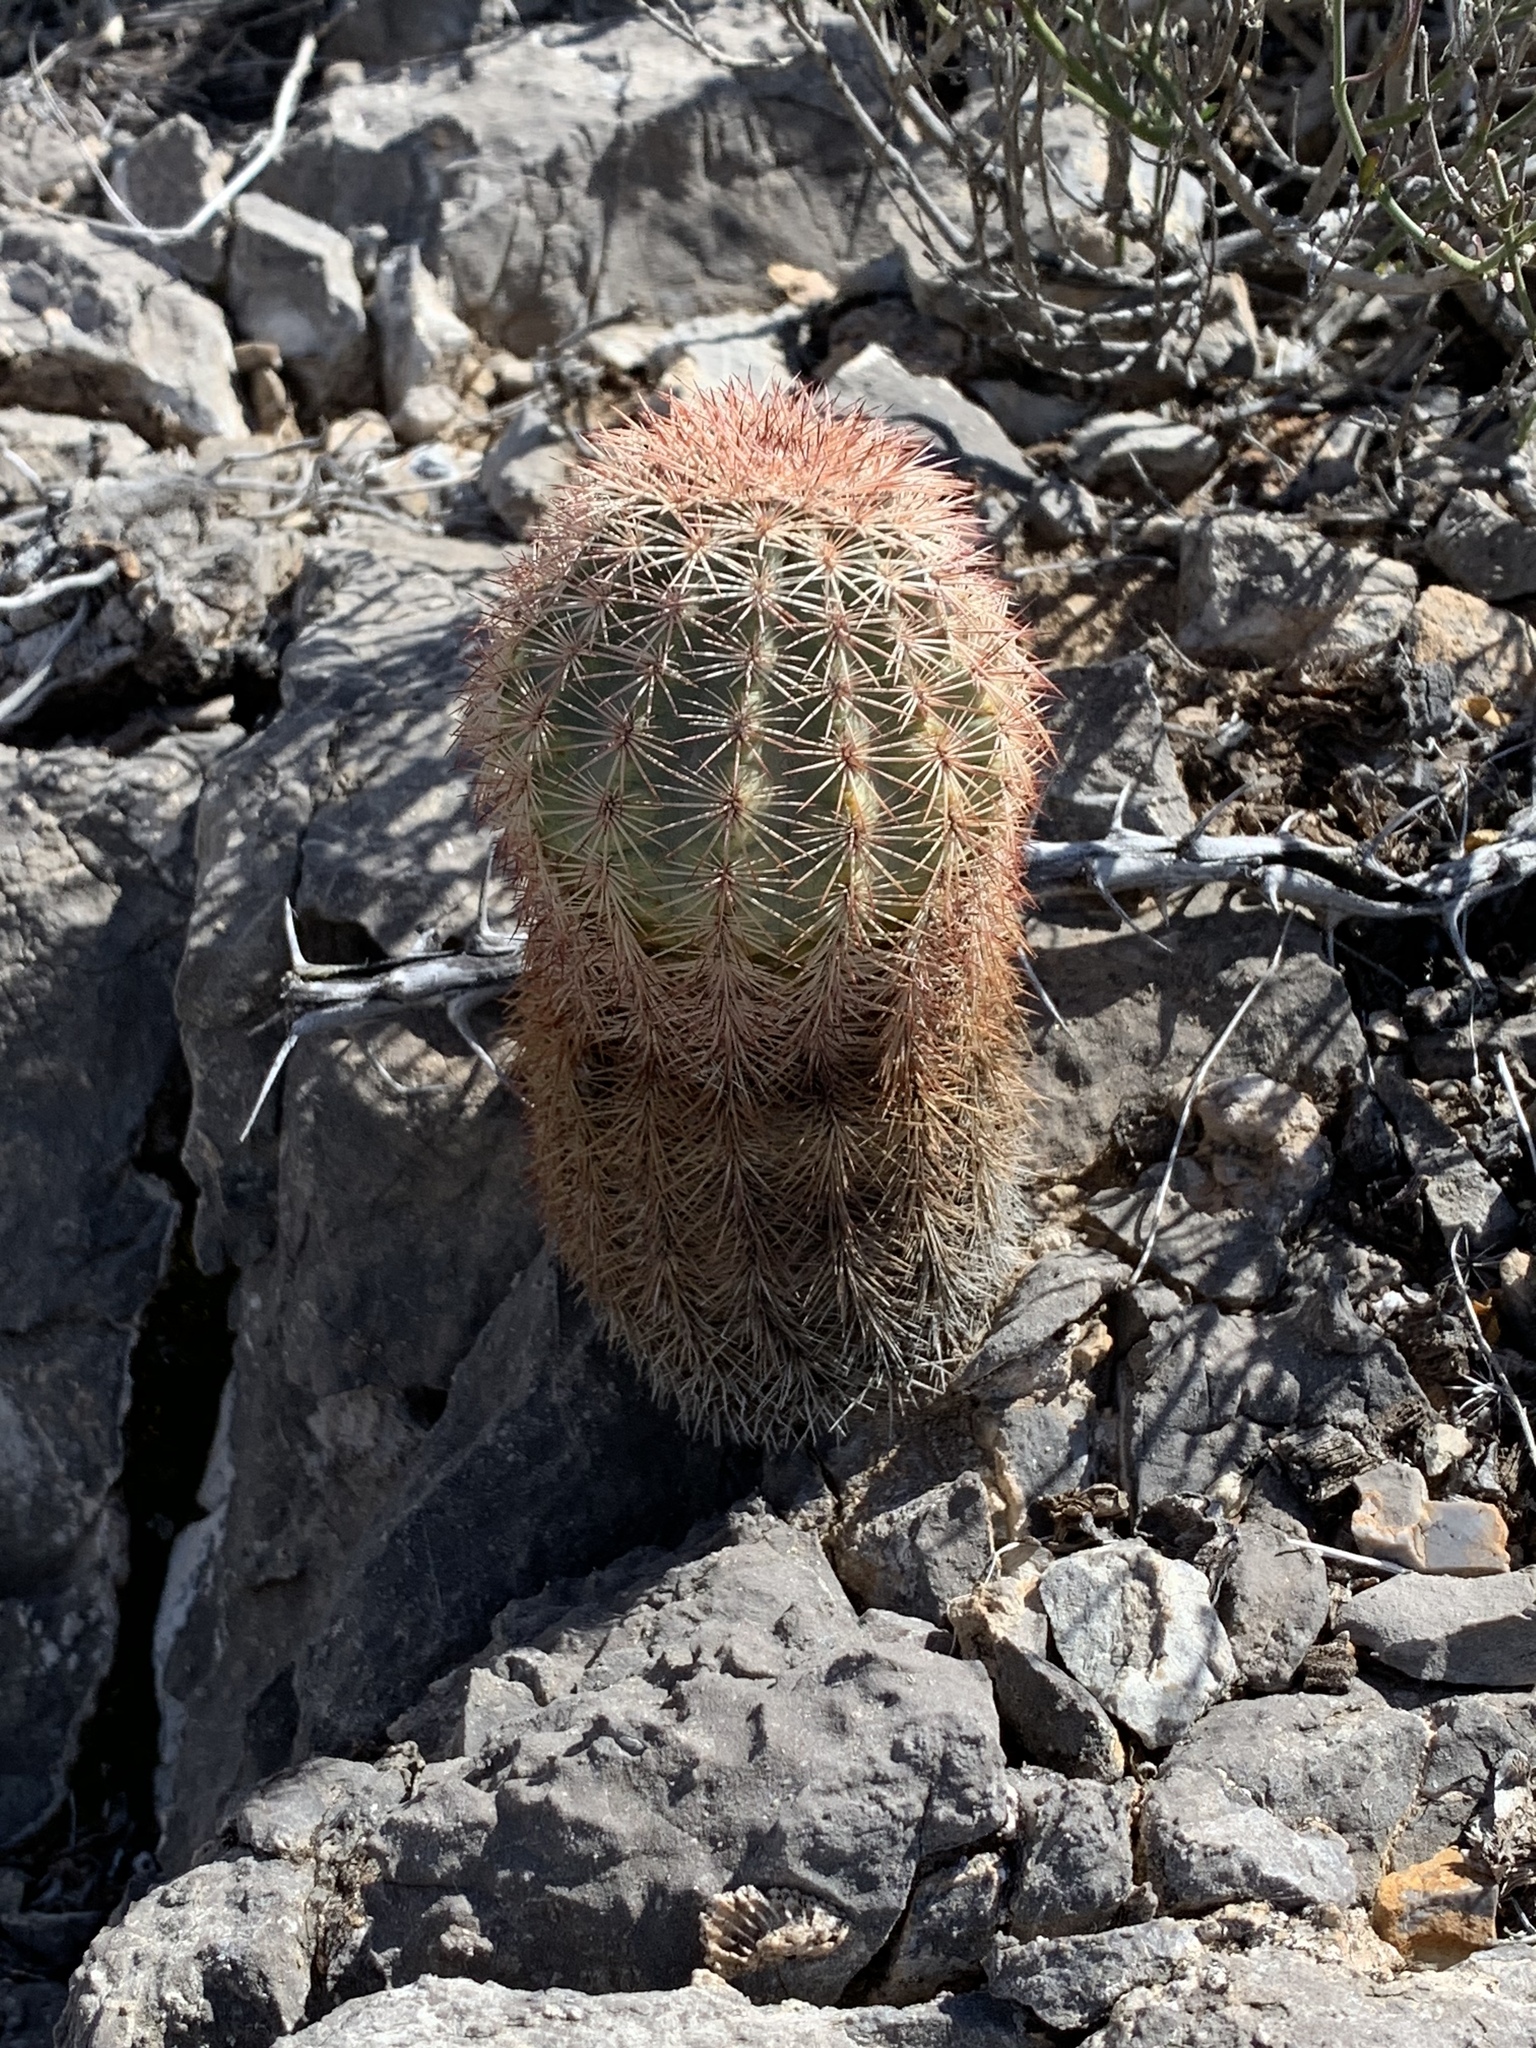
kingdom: Plantae
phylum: Tracheophyta
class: Magnoliopsida
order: Caryophyllales
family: Cactaceae
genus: Echinocereus
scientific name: Echinocereus dasyacanthus
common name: Spiny hedgehog cactus
